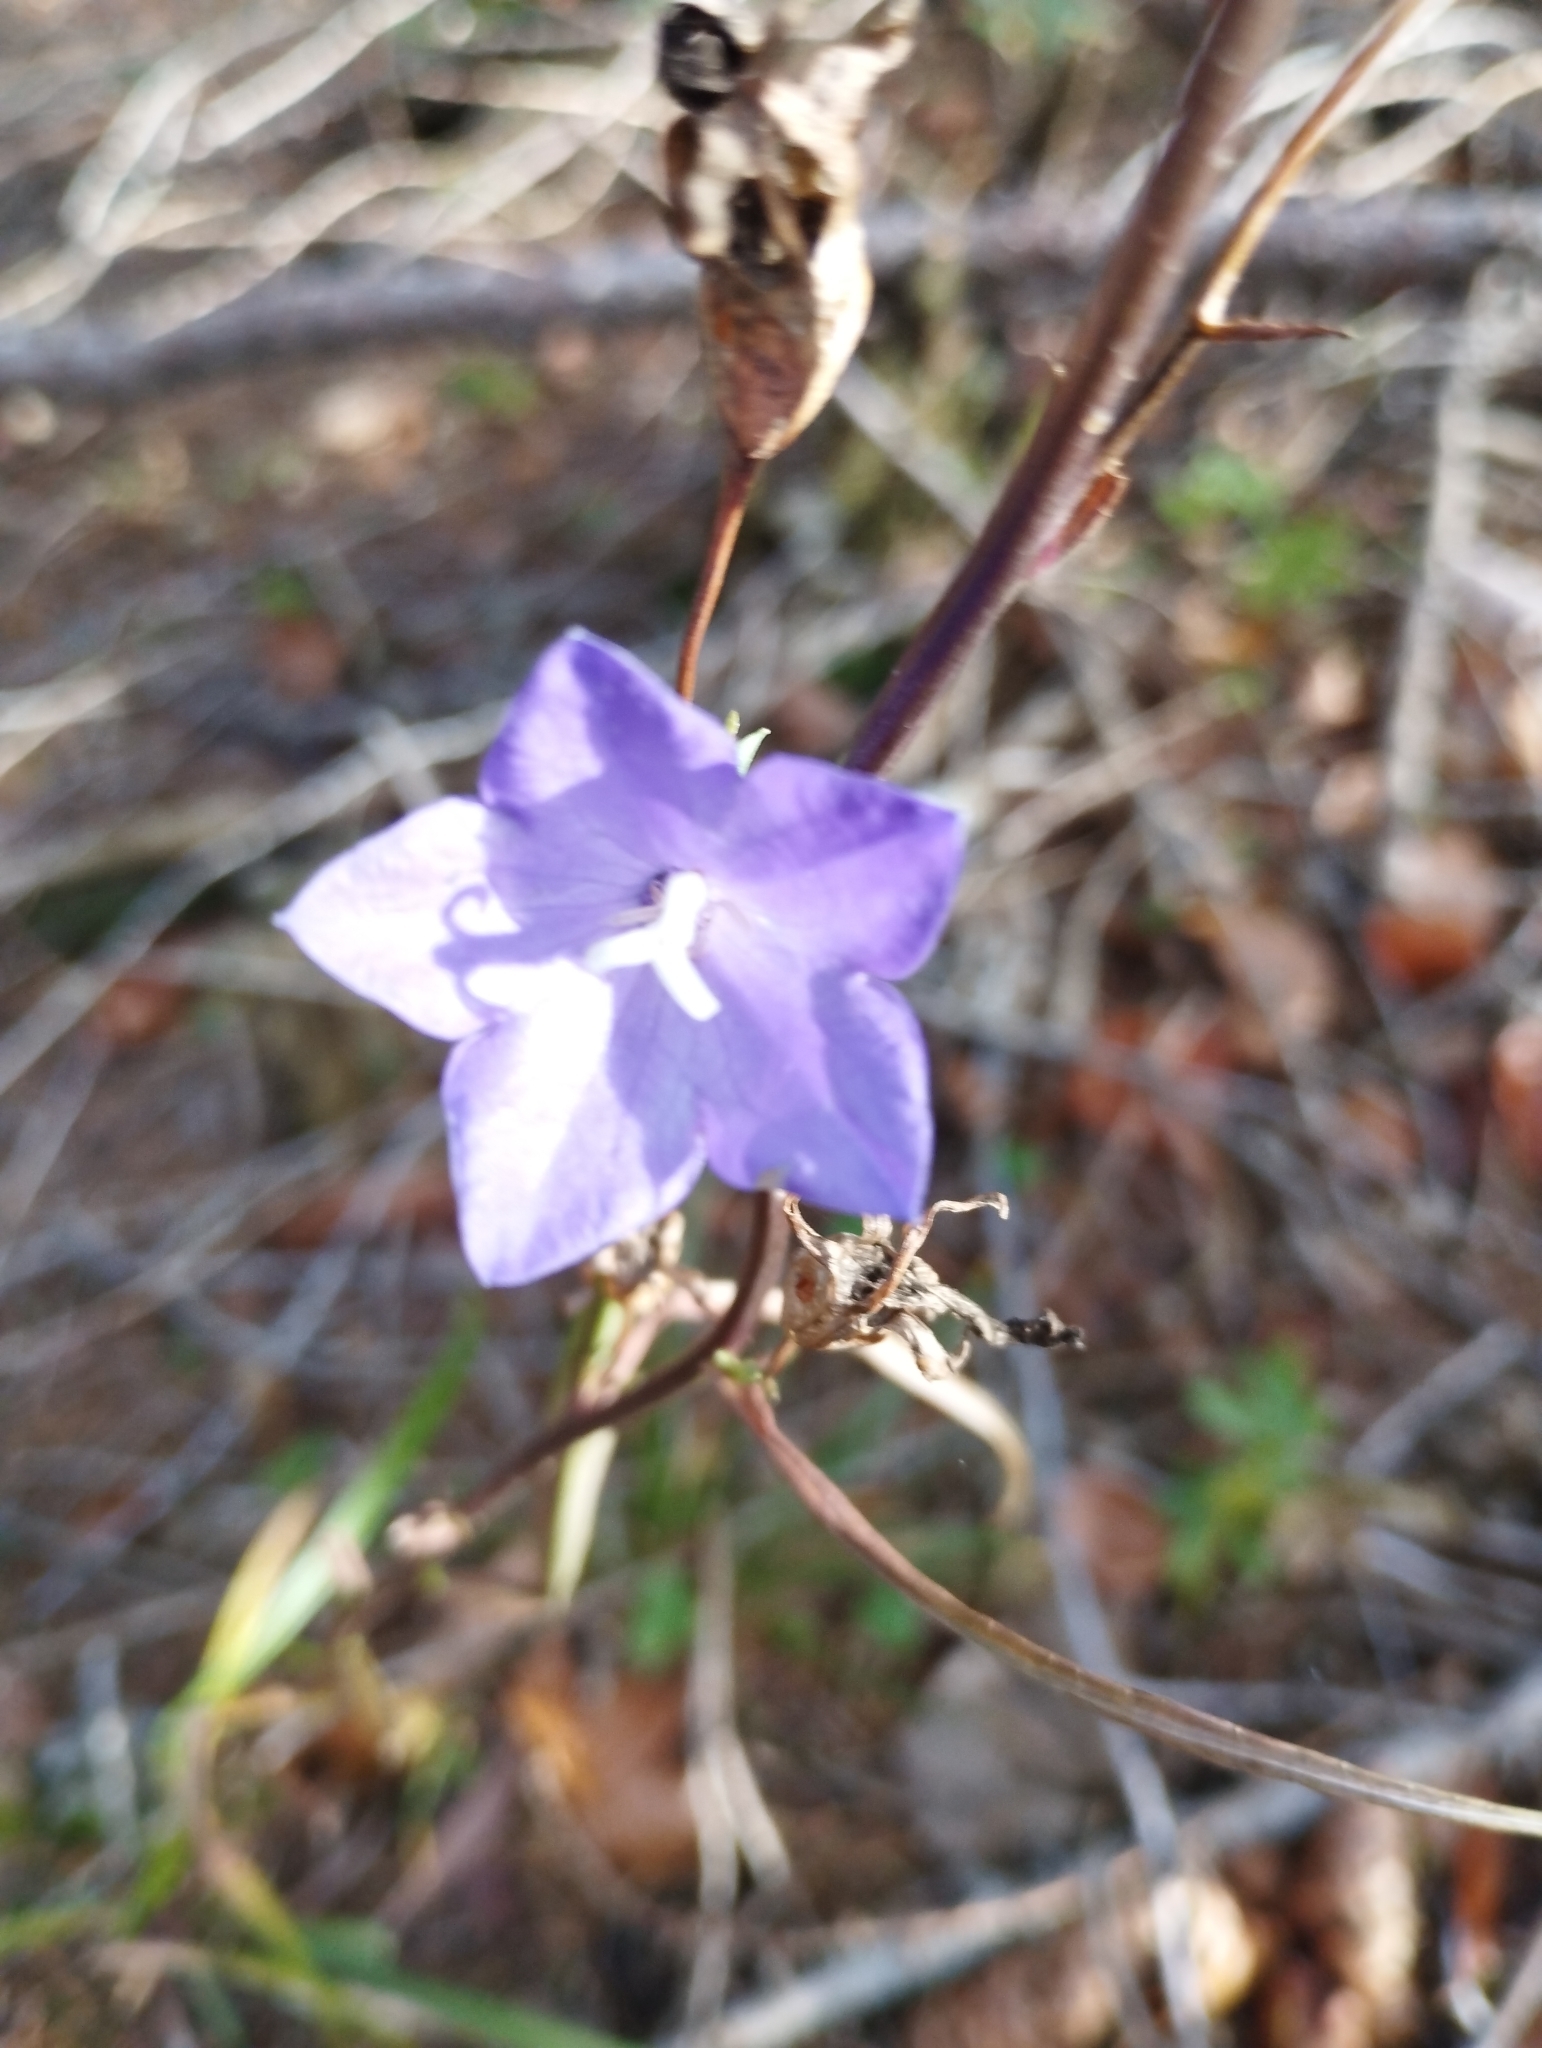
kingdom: Plantae
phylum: Tracheophyta
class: Magnoliopsida
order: Asterales
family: Campanulaceae
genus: Campanula
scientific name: Campanula persicifolia
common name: Peach-leaved bellflower
